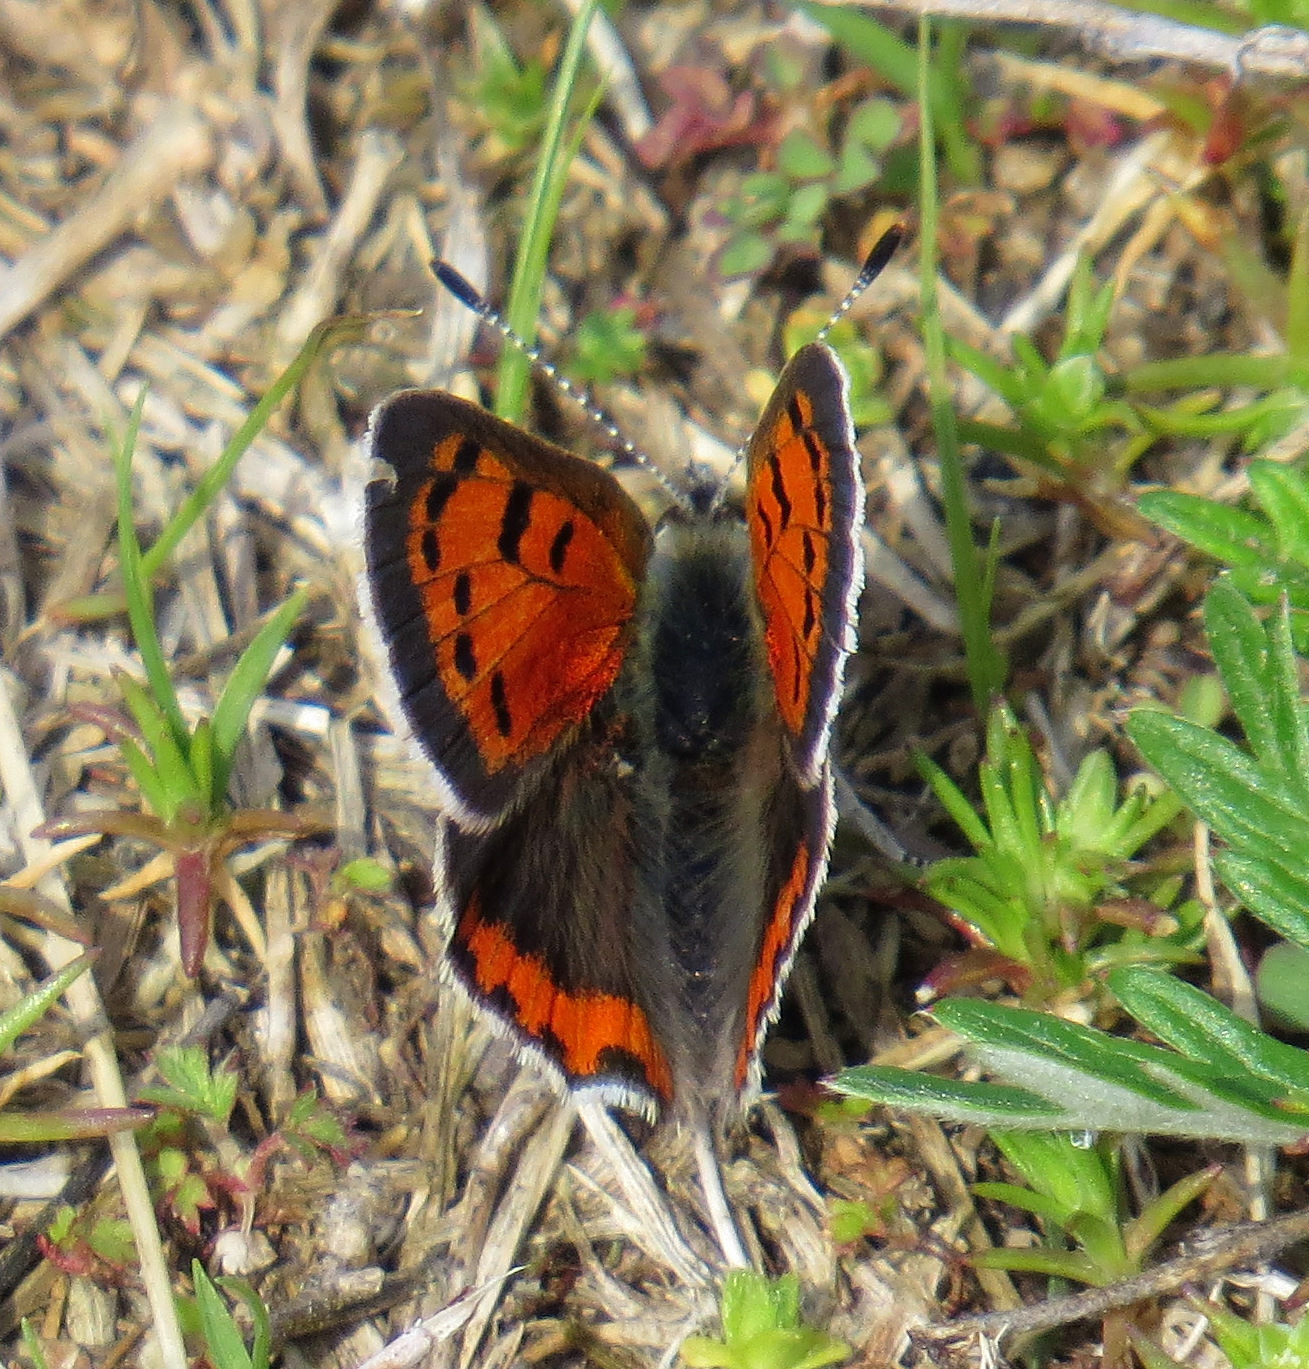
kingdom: Animalia
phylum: Arthropoda
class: Insecta
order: Lepidoptera
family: Lycaenidae
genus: Lycaena
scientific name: Lycaena hypophlaeas
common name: American copper
